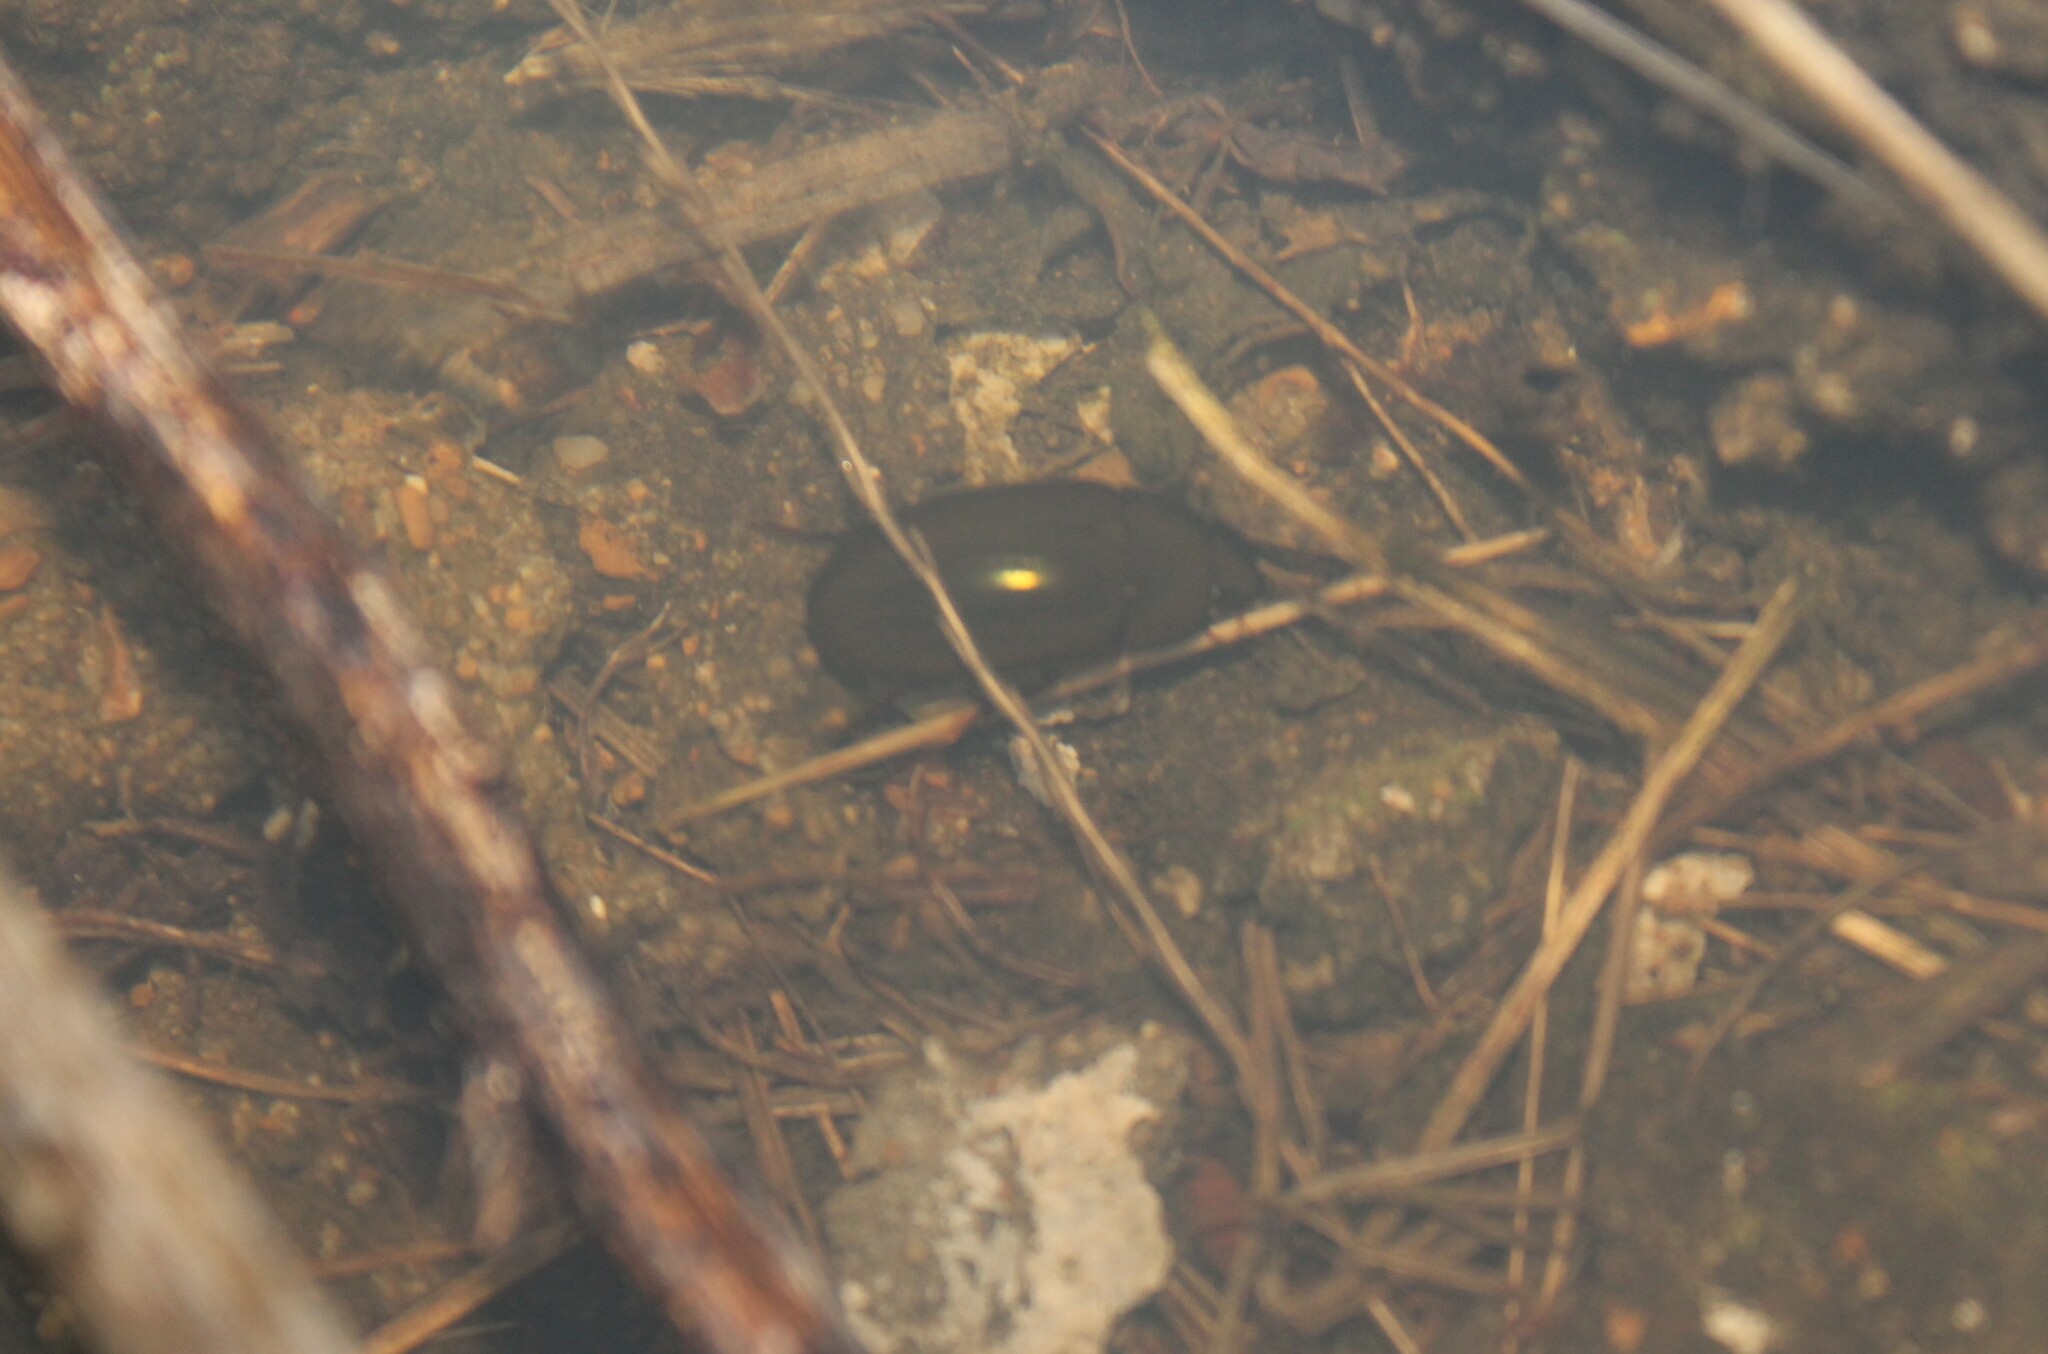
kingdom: Animalia
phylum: Arthropoda
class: Insecta
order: Coleoptera
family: Hydrophilidae
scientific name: Hydrophilidae
